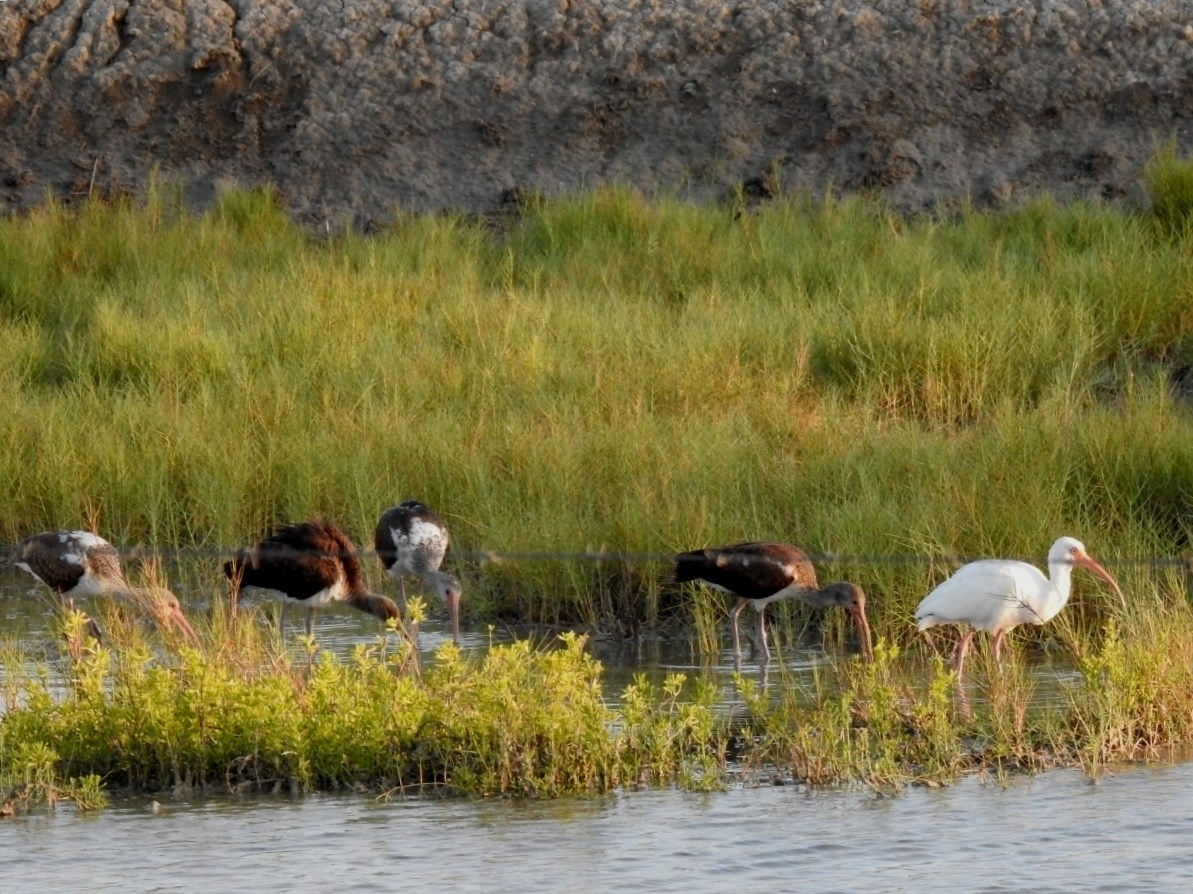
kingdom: Animalia
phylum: Chordata
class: Aves
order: Pelecaniformes
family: Threskiornithidae
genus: Eudocimus
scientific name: Eudocimus albus
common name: White ibis
